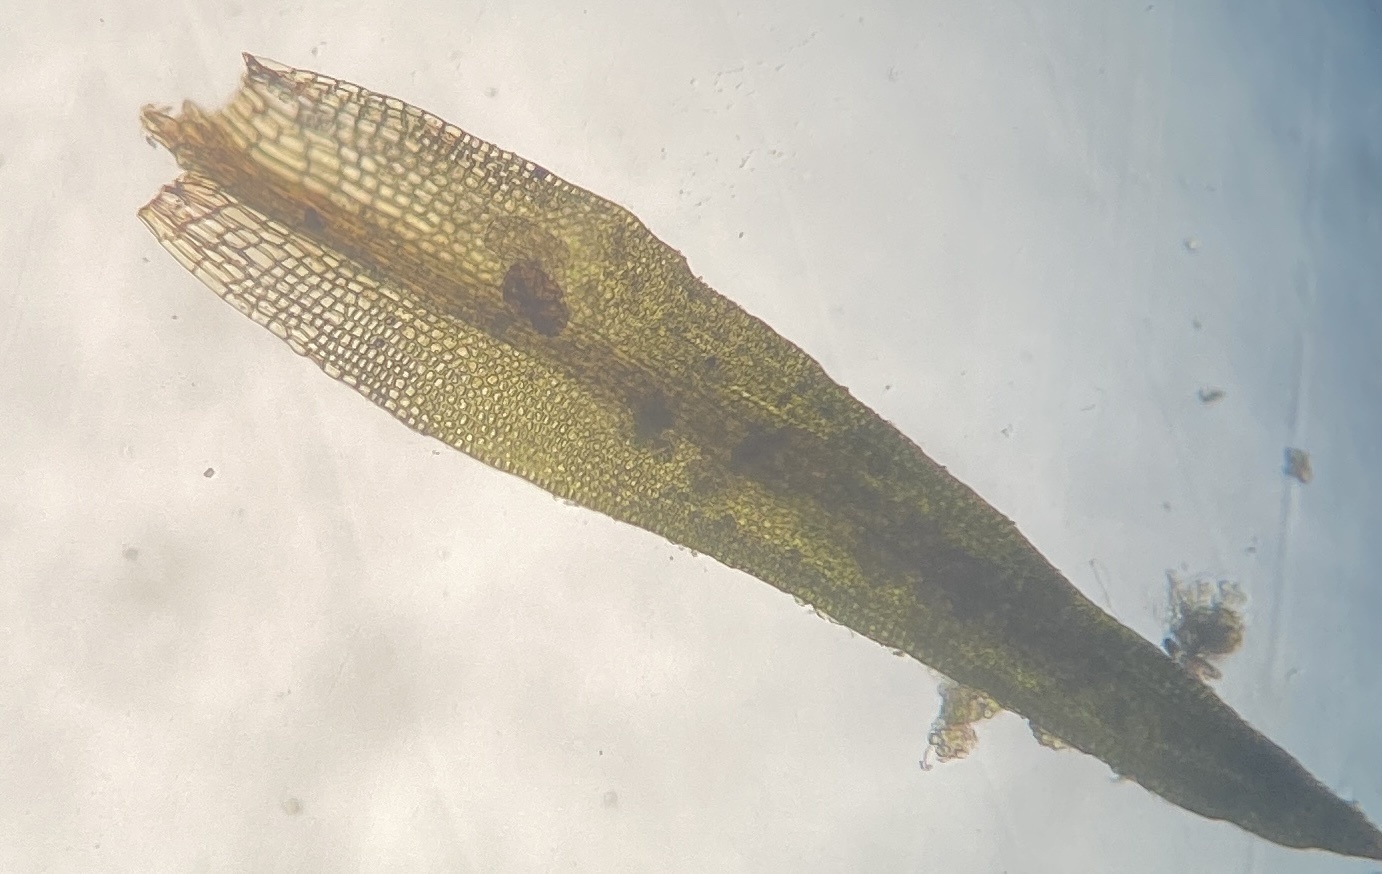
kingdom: Plantae
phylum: Bryophyta
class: Bryopsida
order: Grimmiales
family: Ptychomitriaceae
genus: Ptychomitrium
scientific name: Ptychomitrium incurvum
